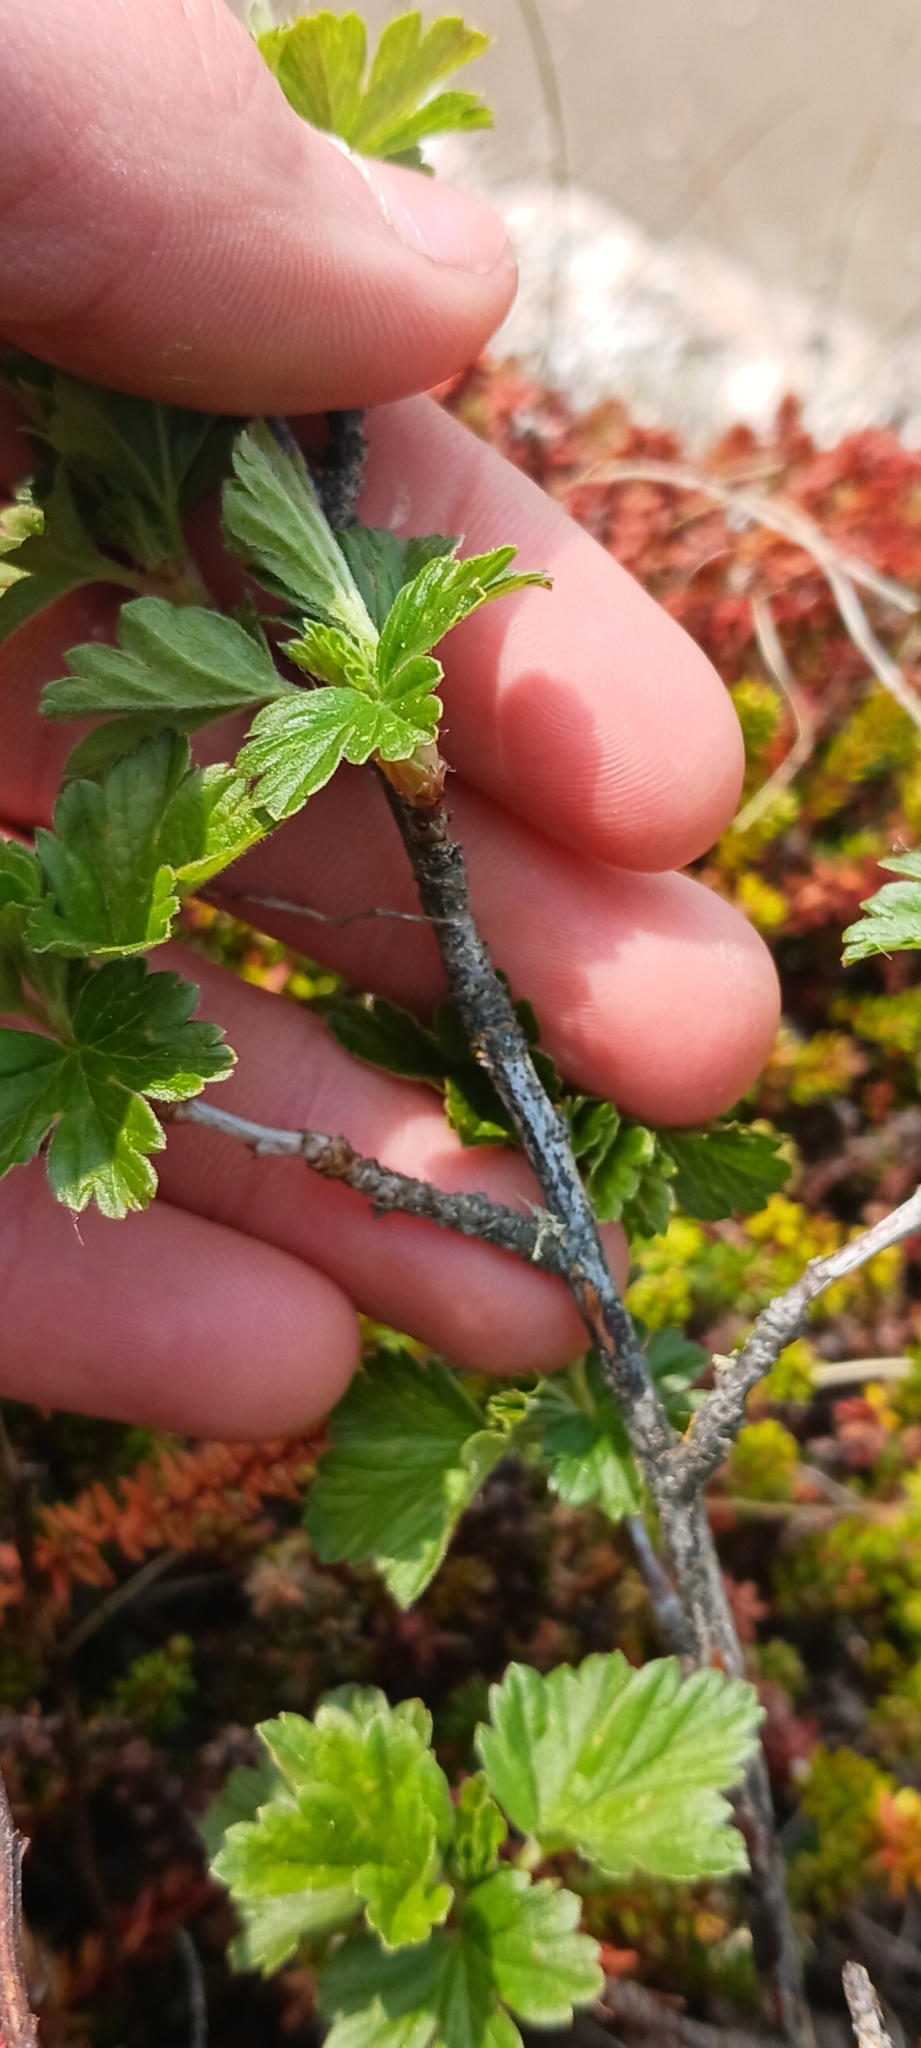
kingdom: Plantae
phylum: Tracheophyta
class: Magnoliopsida
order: Saxifragales
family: Grossulariaceae
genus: Ribes
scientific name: Ribes hirtellum
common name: Hairy gooseberry
